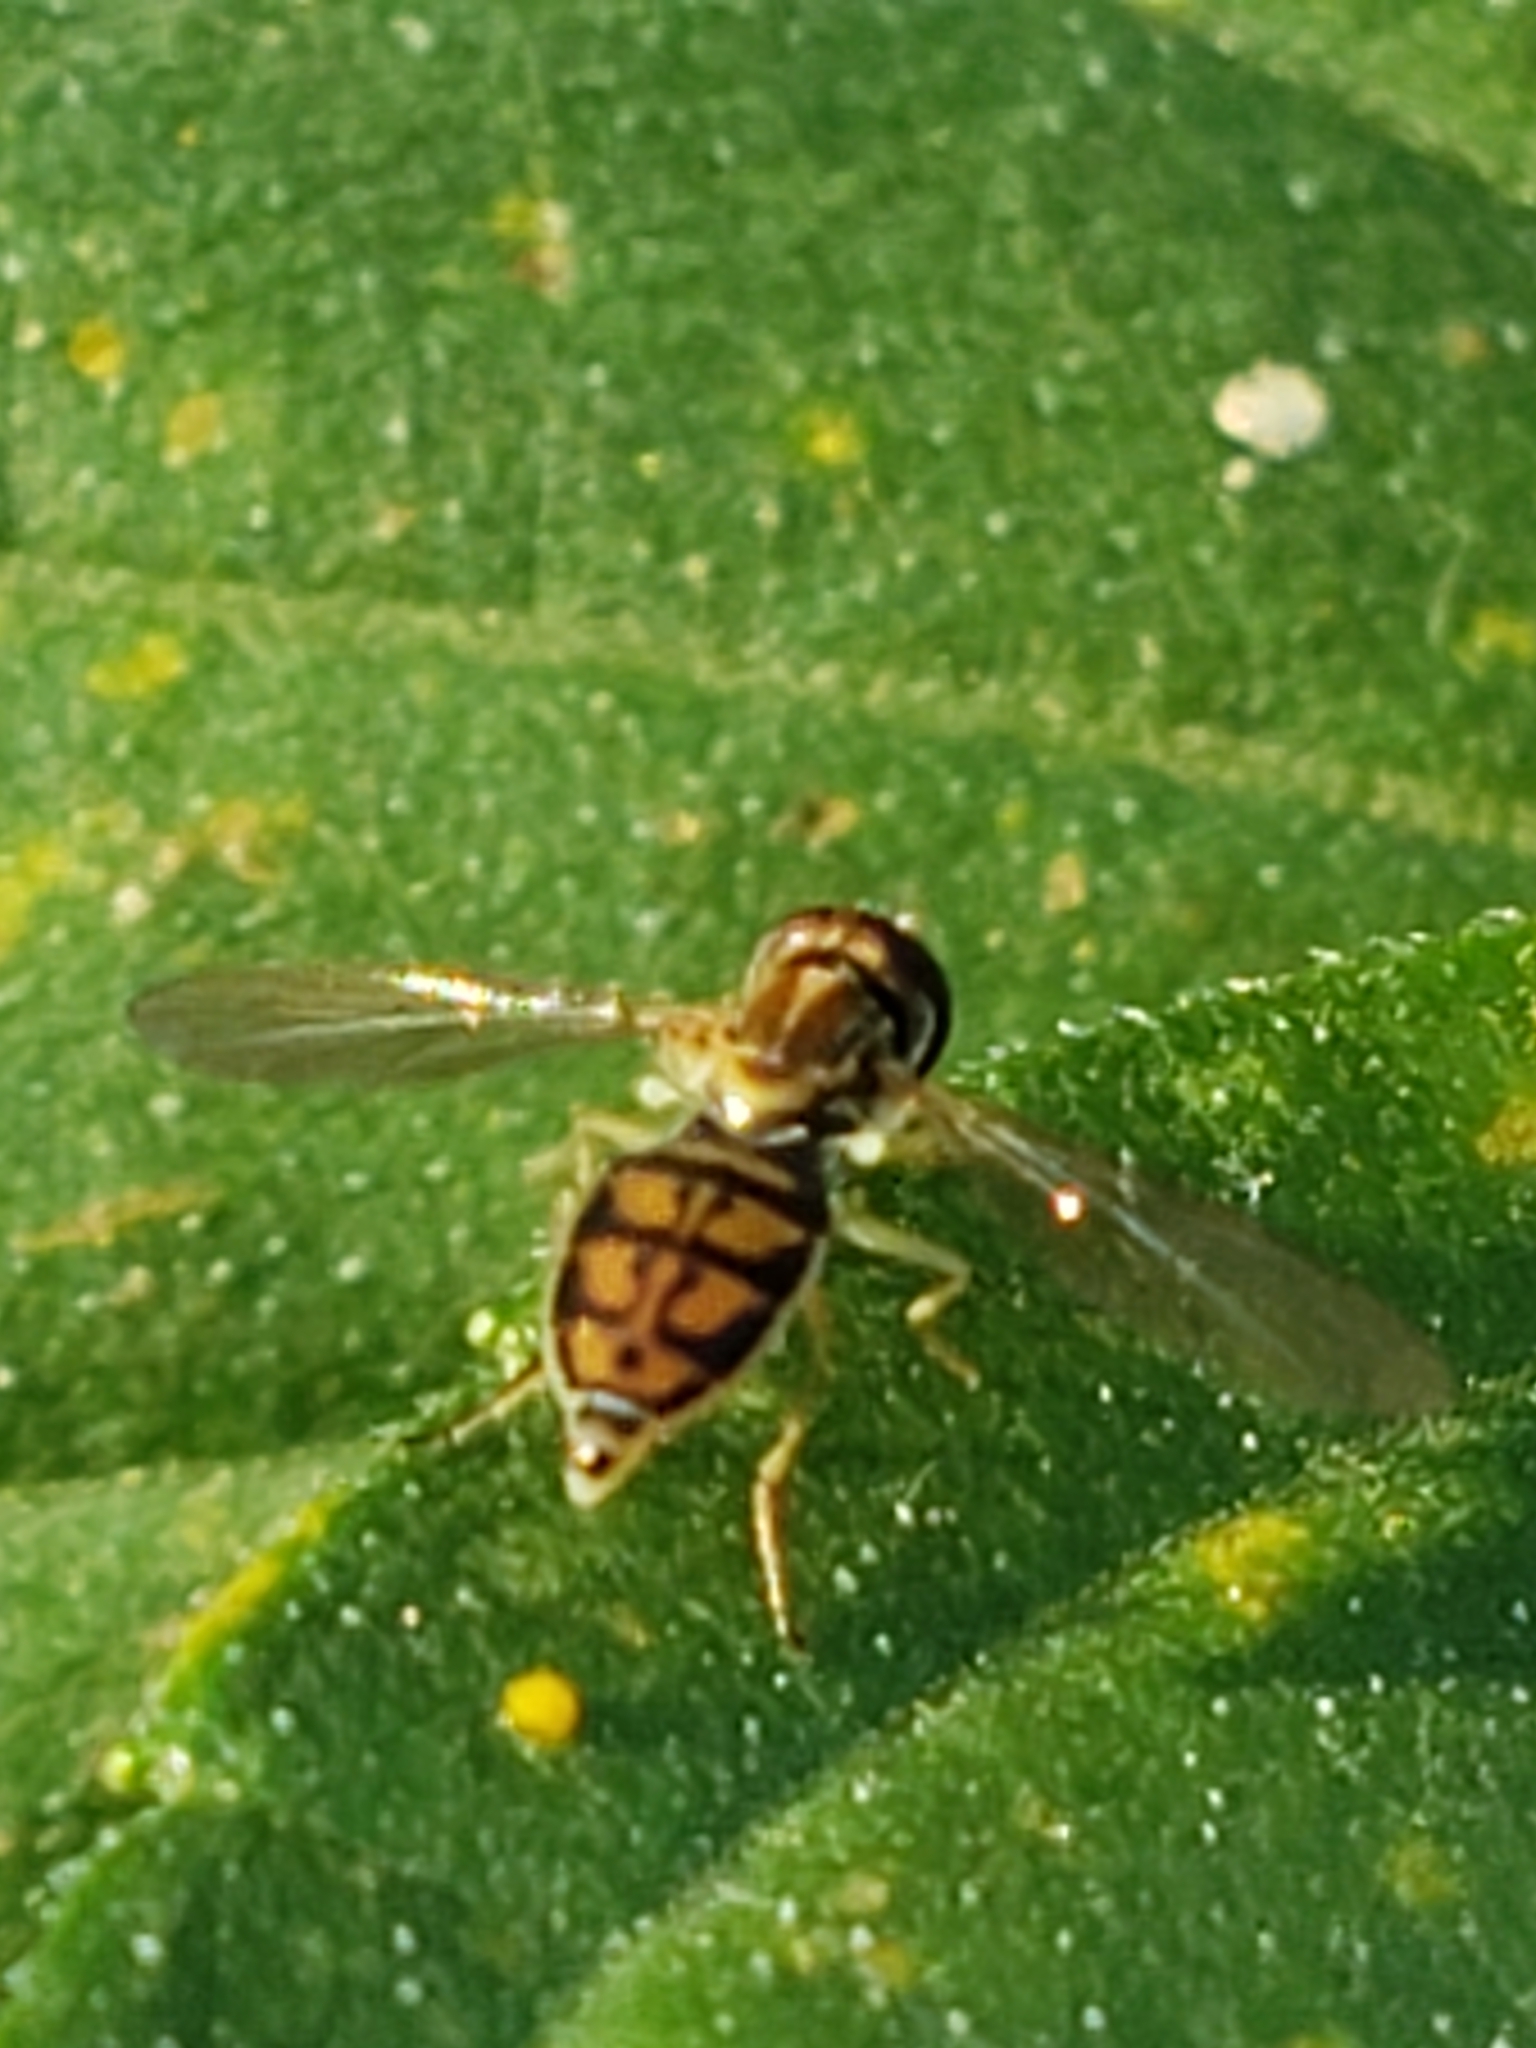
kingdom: Animalia
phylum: Arthropoda
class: Insecta
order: Diptera
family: Syrphidae
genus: Toxomerus
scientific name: Toxomerus marginatus
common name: Syrphid fly
